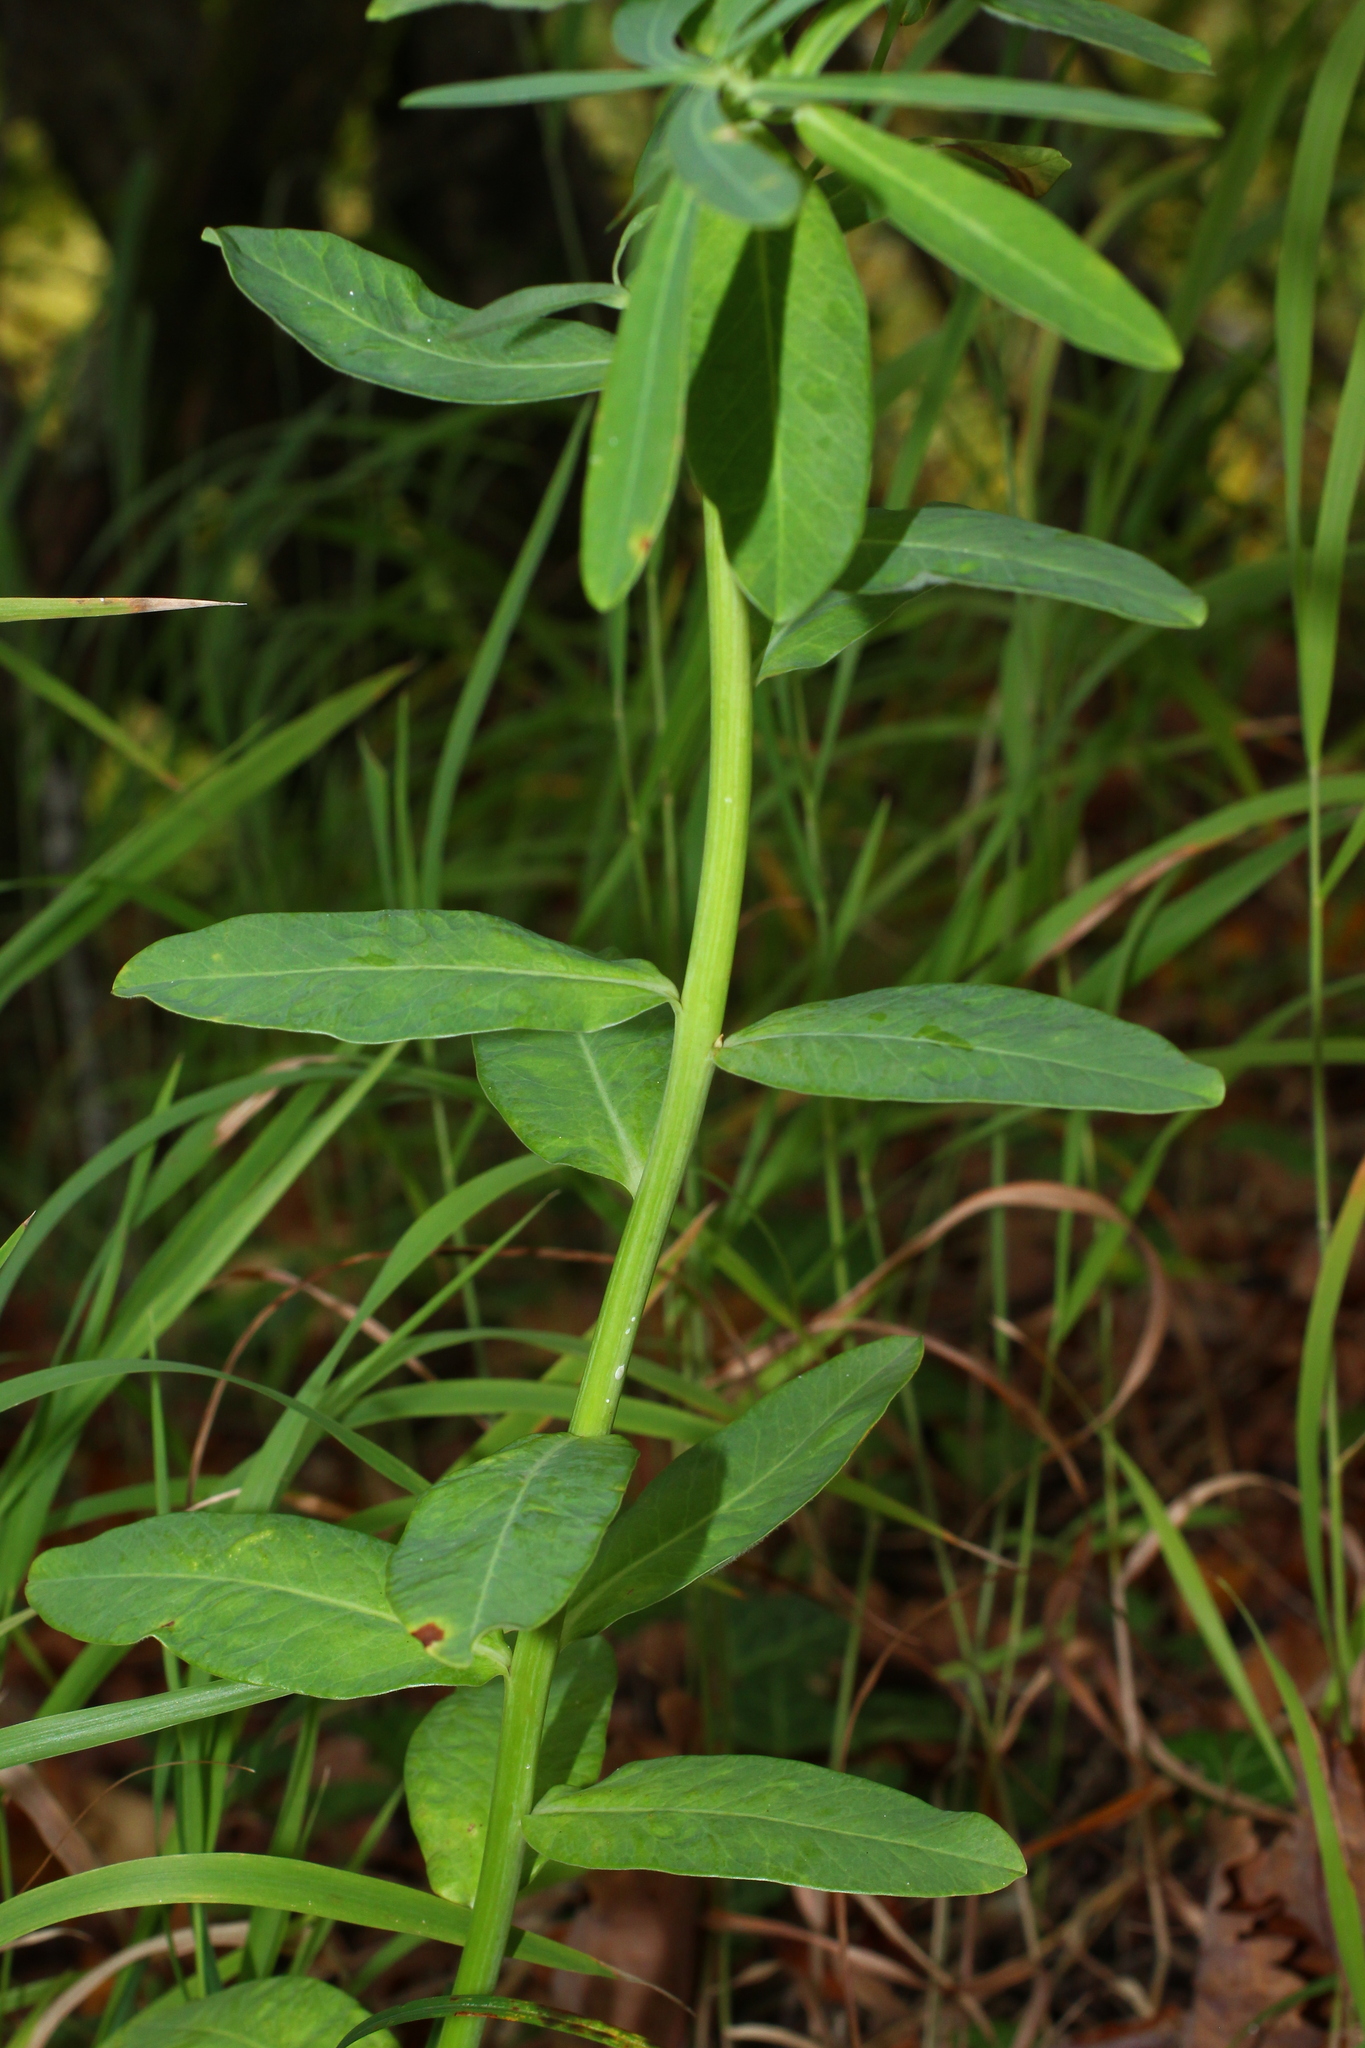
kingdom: Plantae
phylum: Tracheophyta
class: Magnoliopsida
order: Malpighiales
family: Euphorbiaceae
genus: Euphorbia
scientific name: Euphorbia dubovikii
